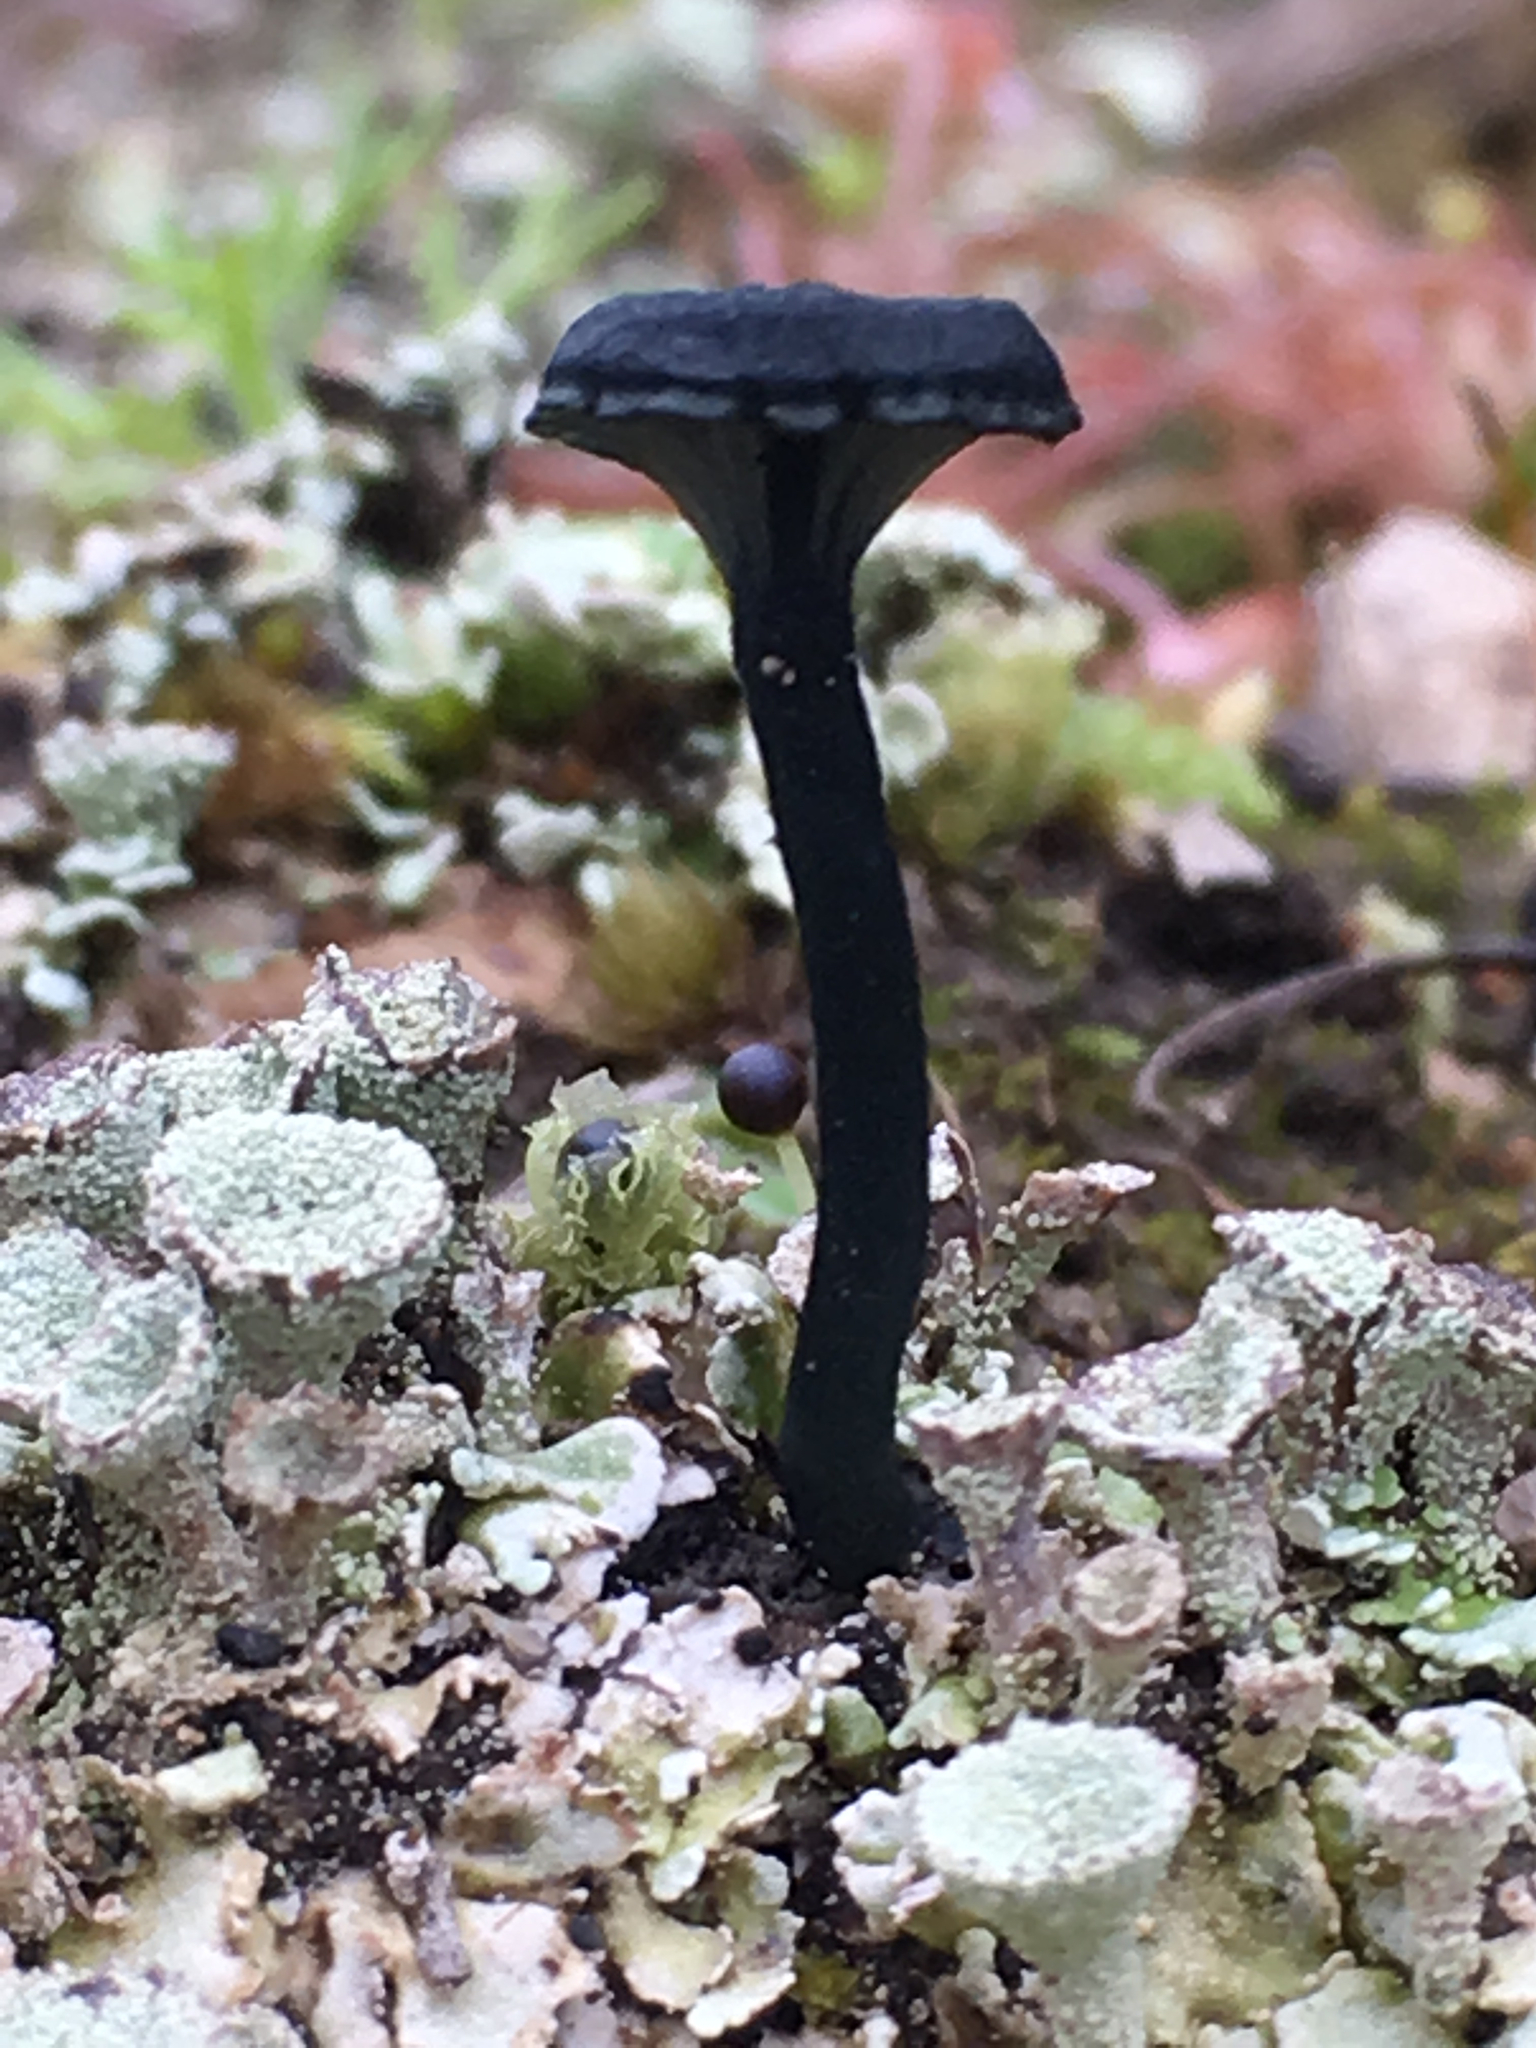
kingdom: Fungi
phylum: Basidiomycota
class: Agaricomycetes
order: Agaricales
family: Hygrophoraceae
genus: Arrhenia
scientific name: Arrhenia chlorocyanea
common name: Verdigris navel
